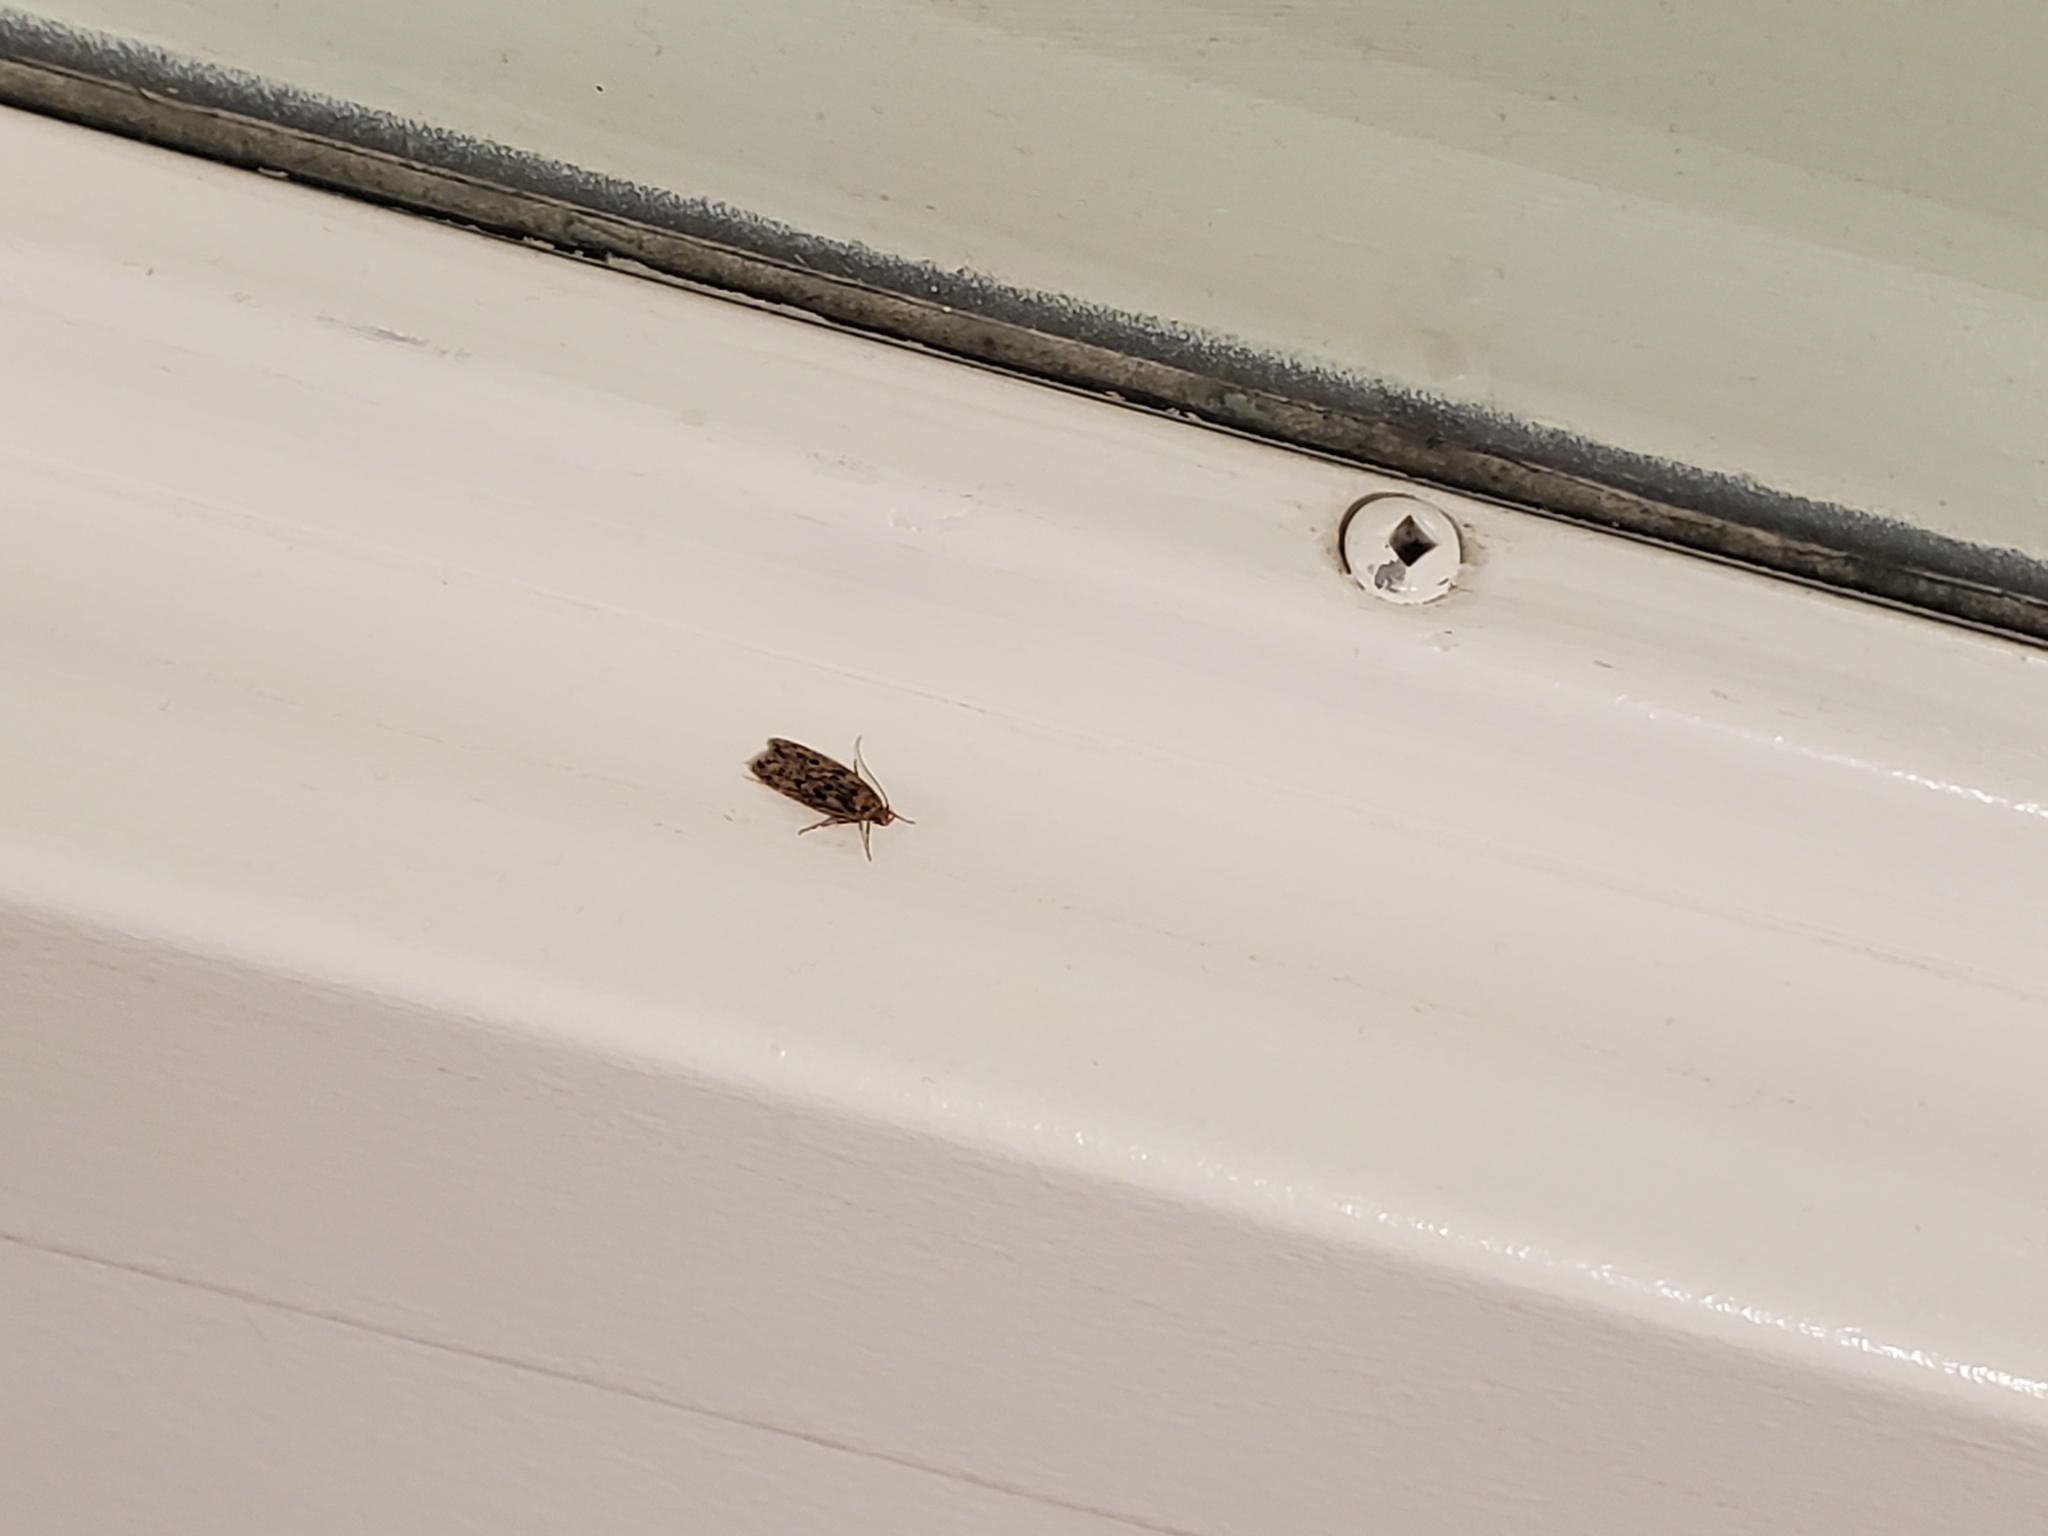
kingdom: Animalia
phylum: Arthropoda
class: Insecta
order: Lepidoptera
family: Oecophoridae
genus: Hofmannophila
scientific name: Hofmannophila pseudospretella
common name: Brown house moth
